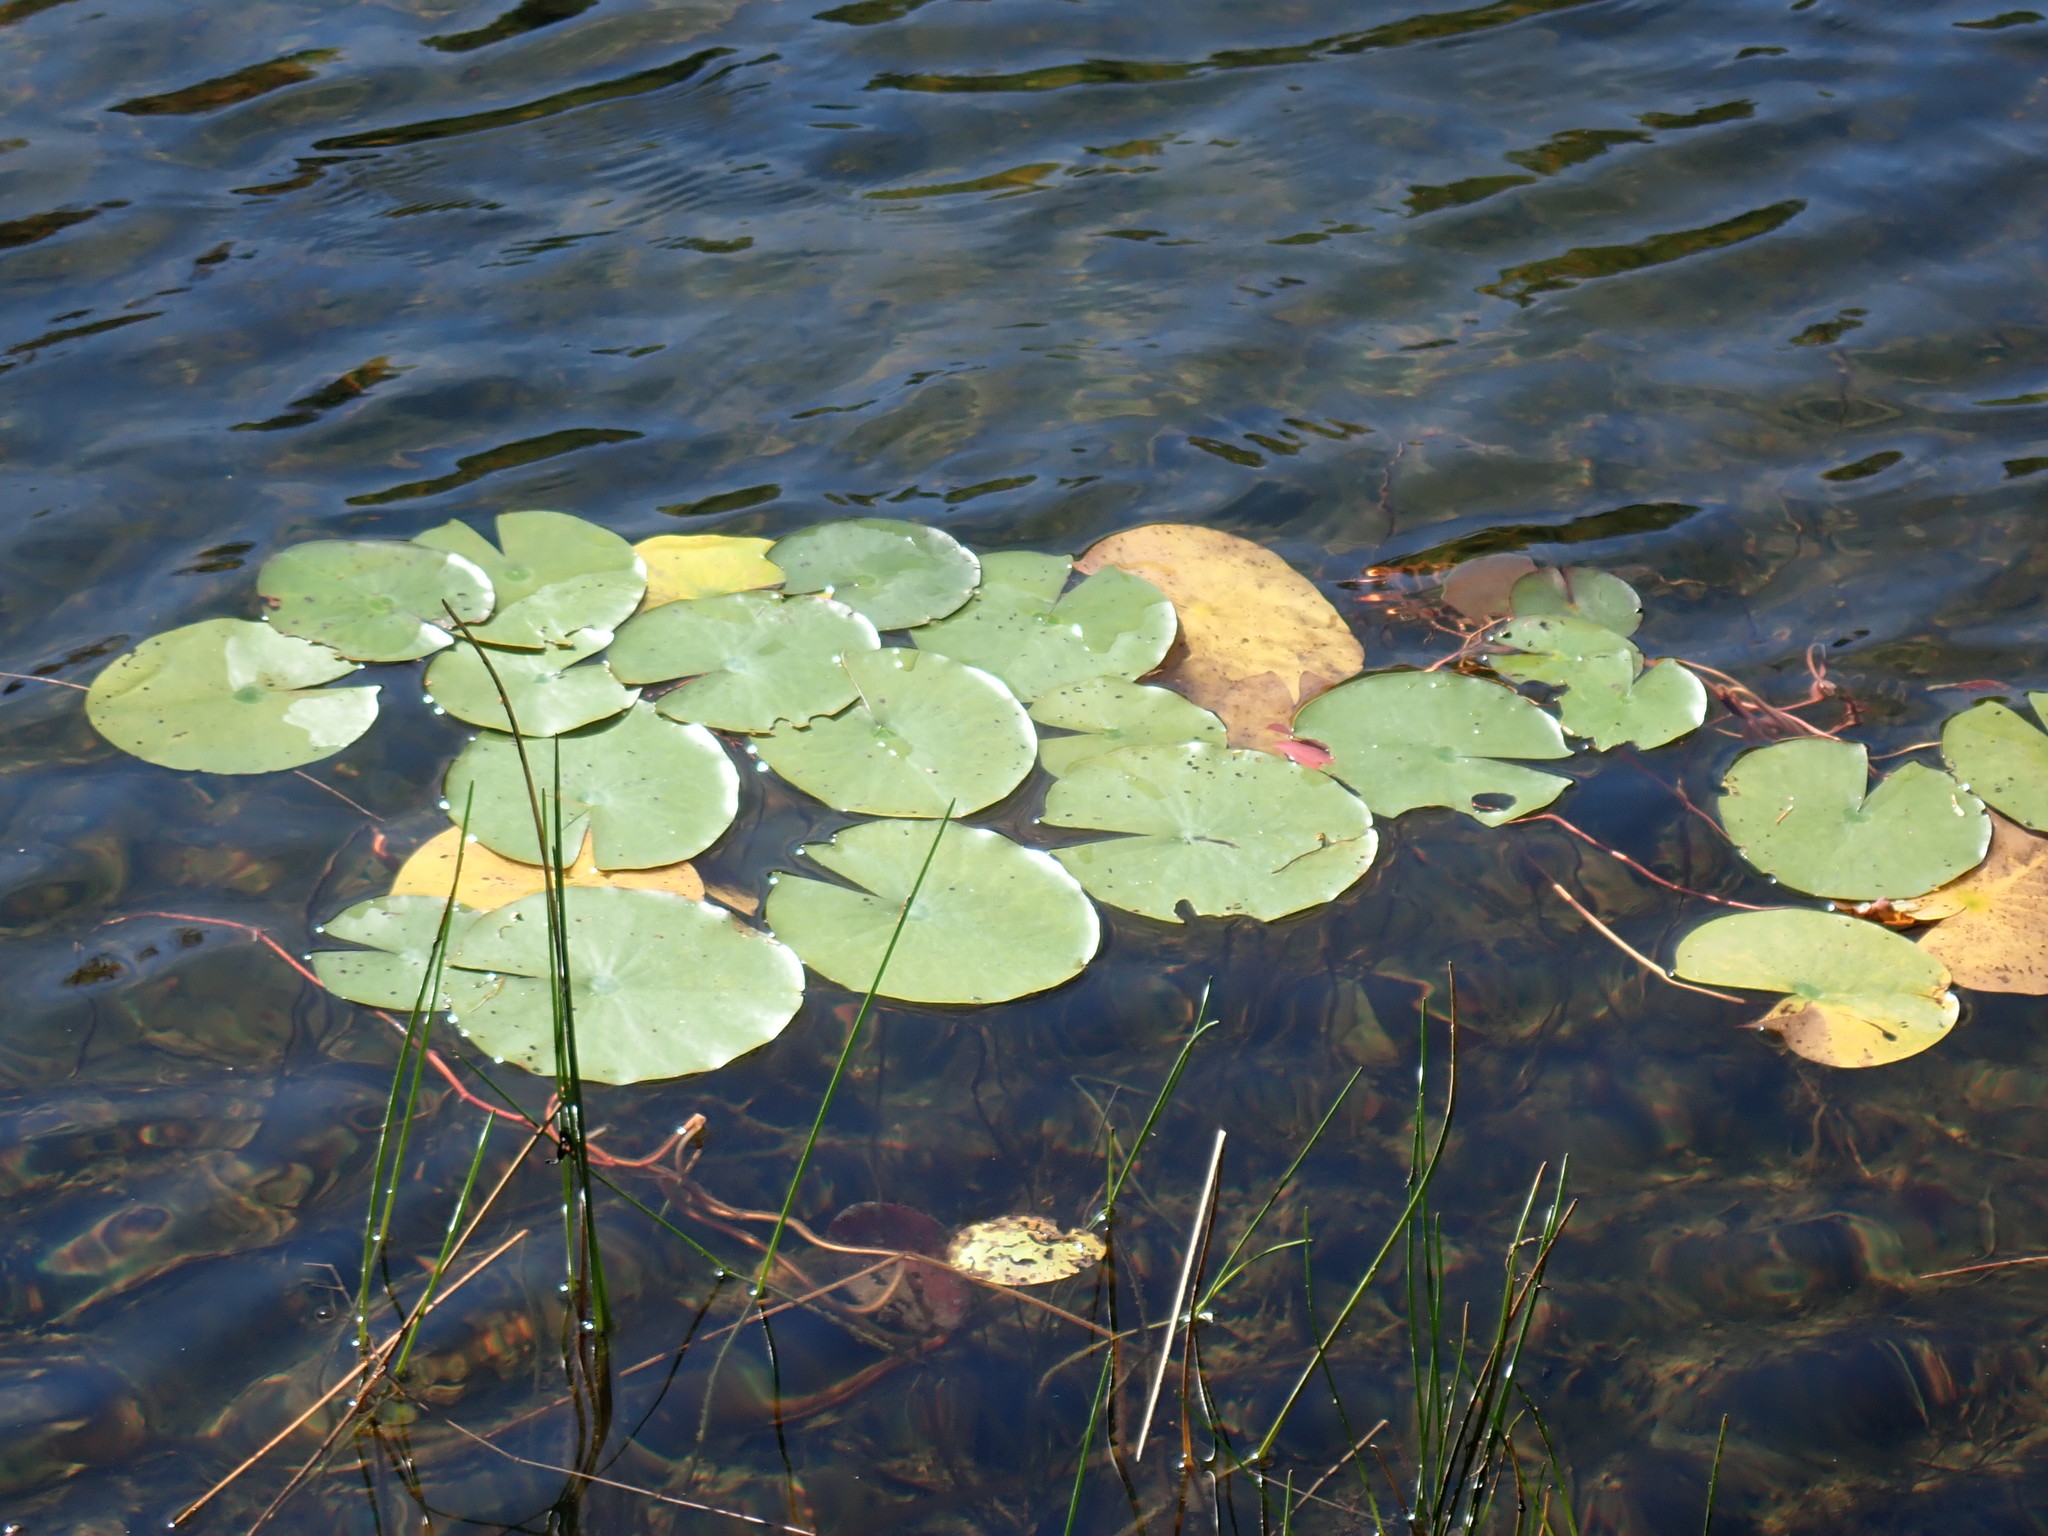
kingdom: Plantae
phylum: Tracheophyta
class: Magnoliopsida
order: Nymphaeales
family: Nymphaeaceae
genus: Nymphaea
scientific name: Nymphaea odorata
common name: Fragrant water-lily
